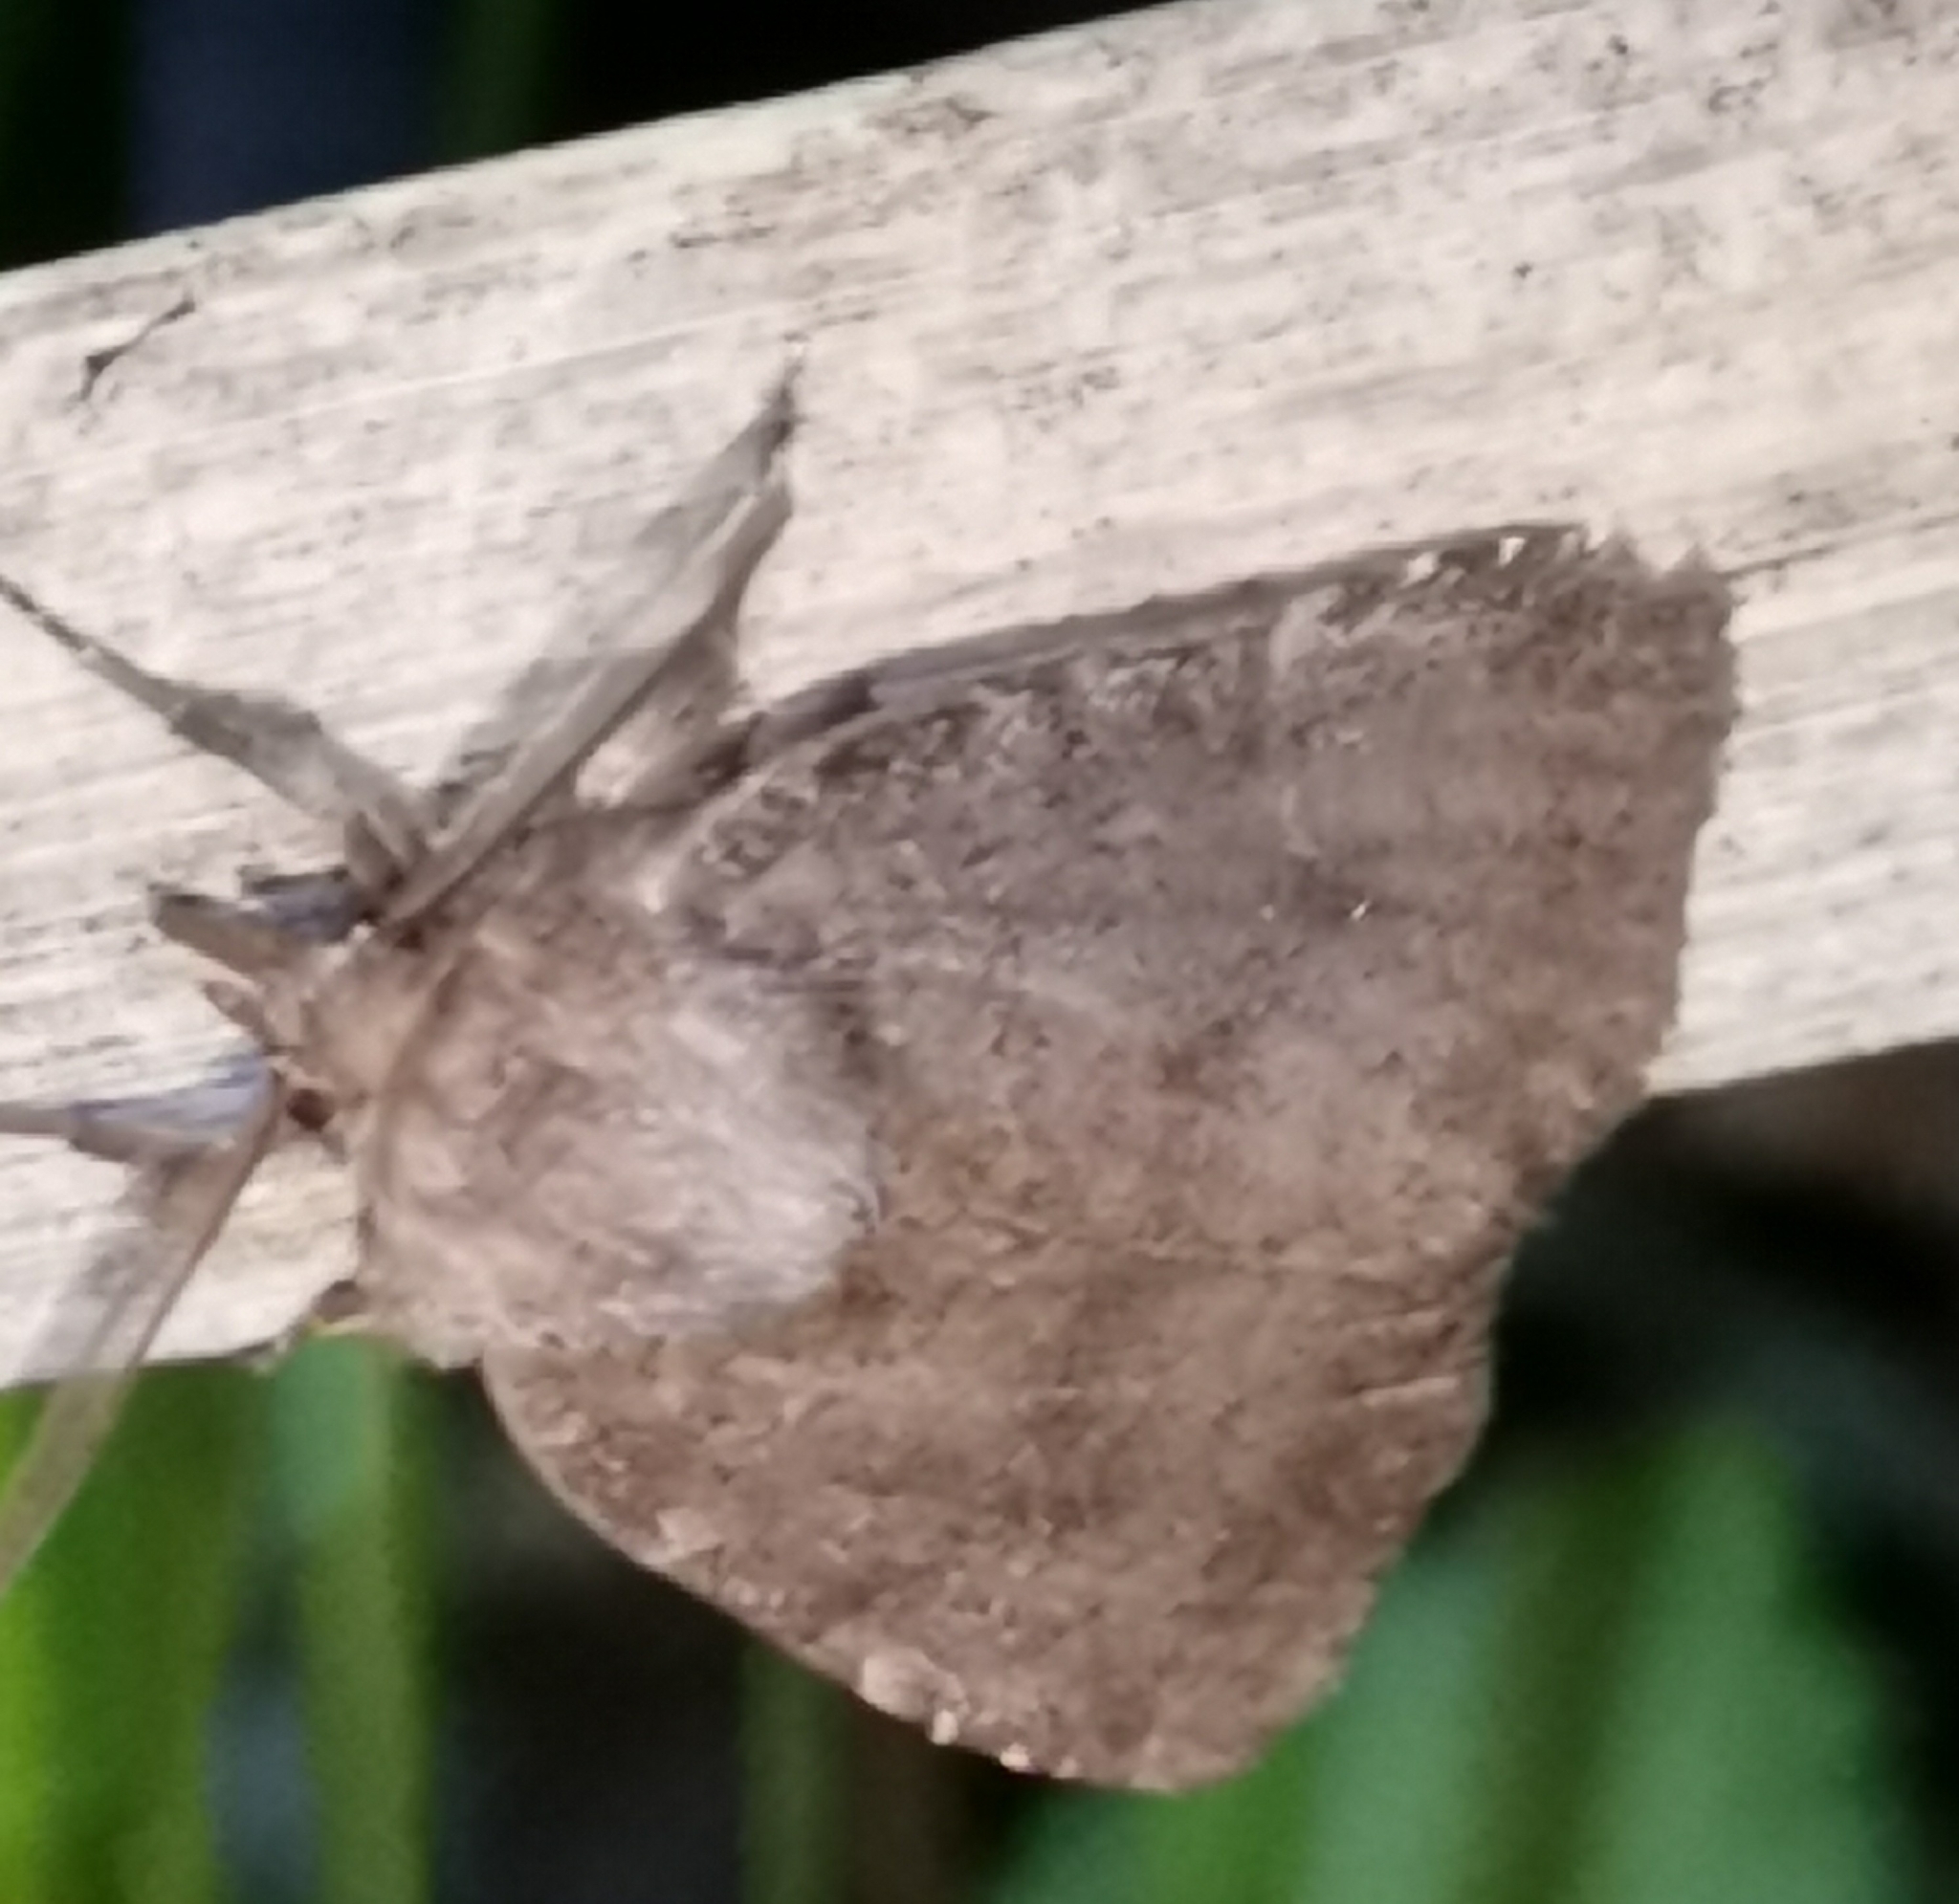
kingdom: Animalia
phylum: Arthropoda
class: Insecta
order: Lepidoptera
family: Noctuidae
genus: Charanyca
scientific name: Charanyca ferruginea
